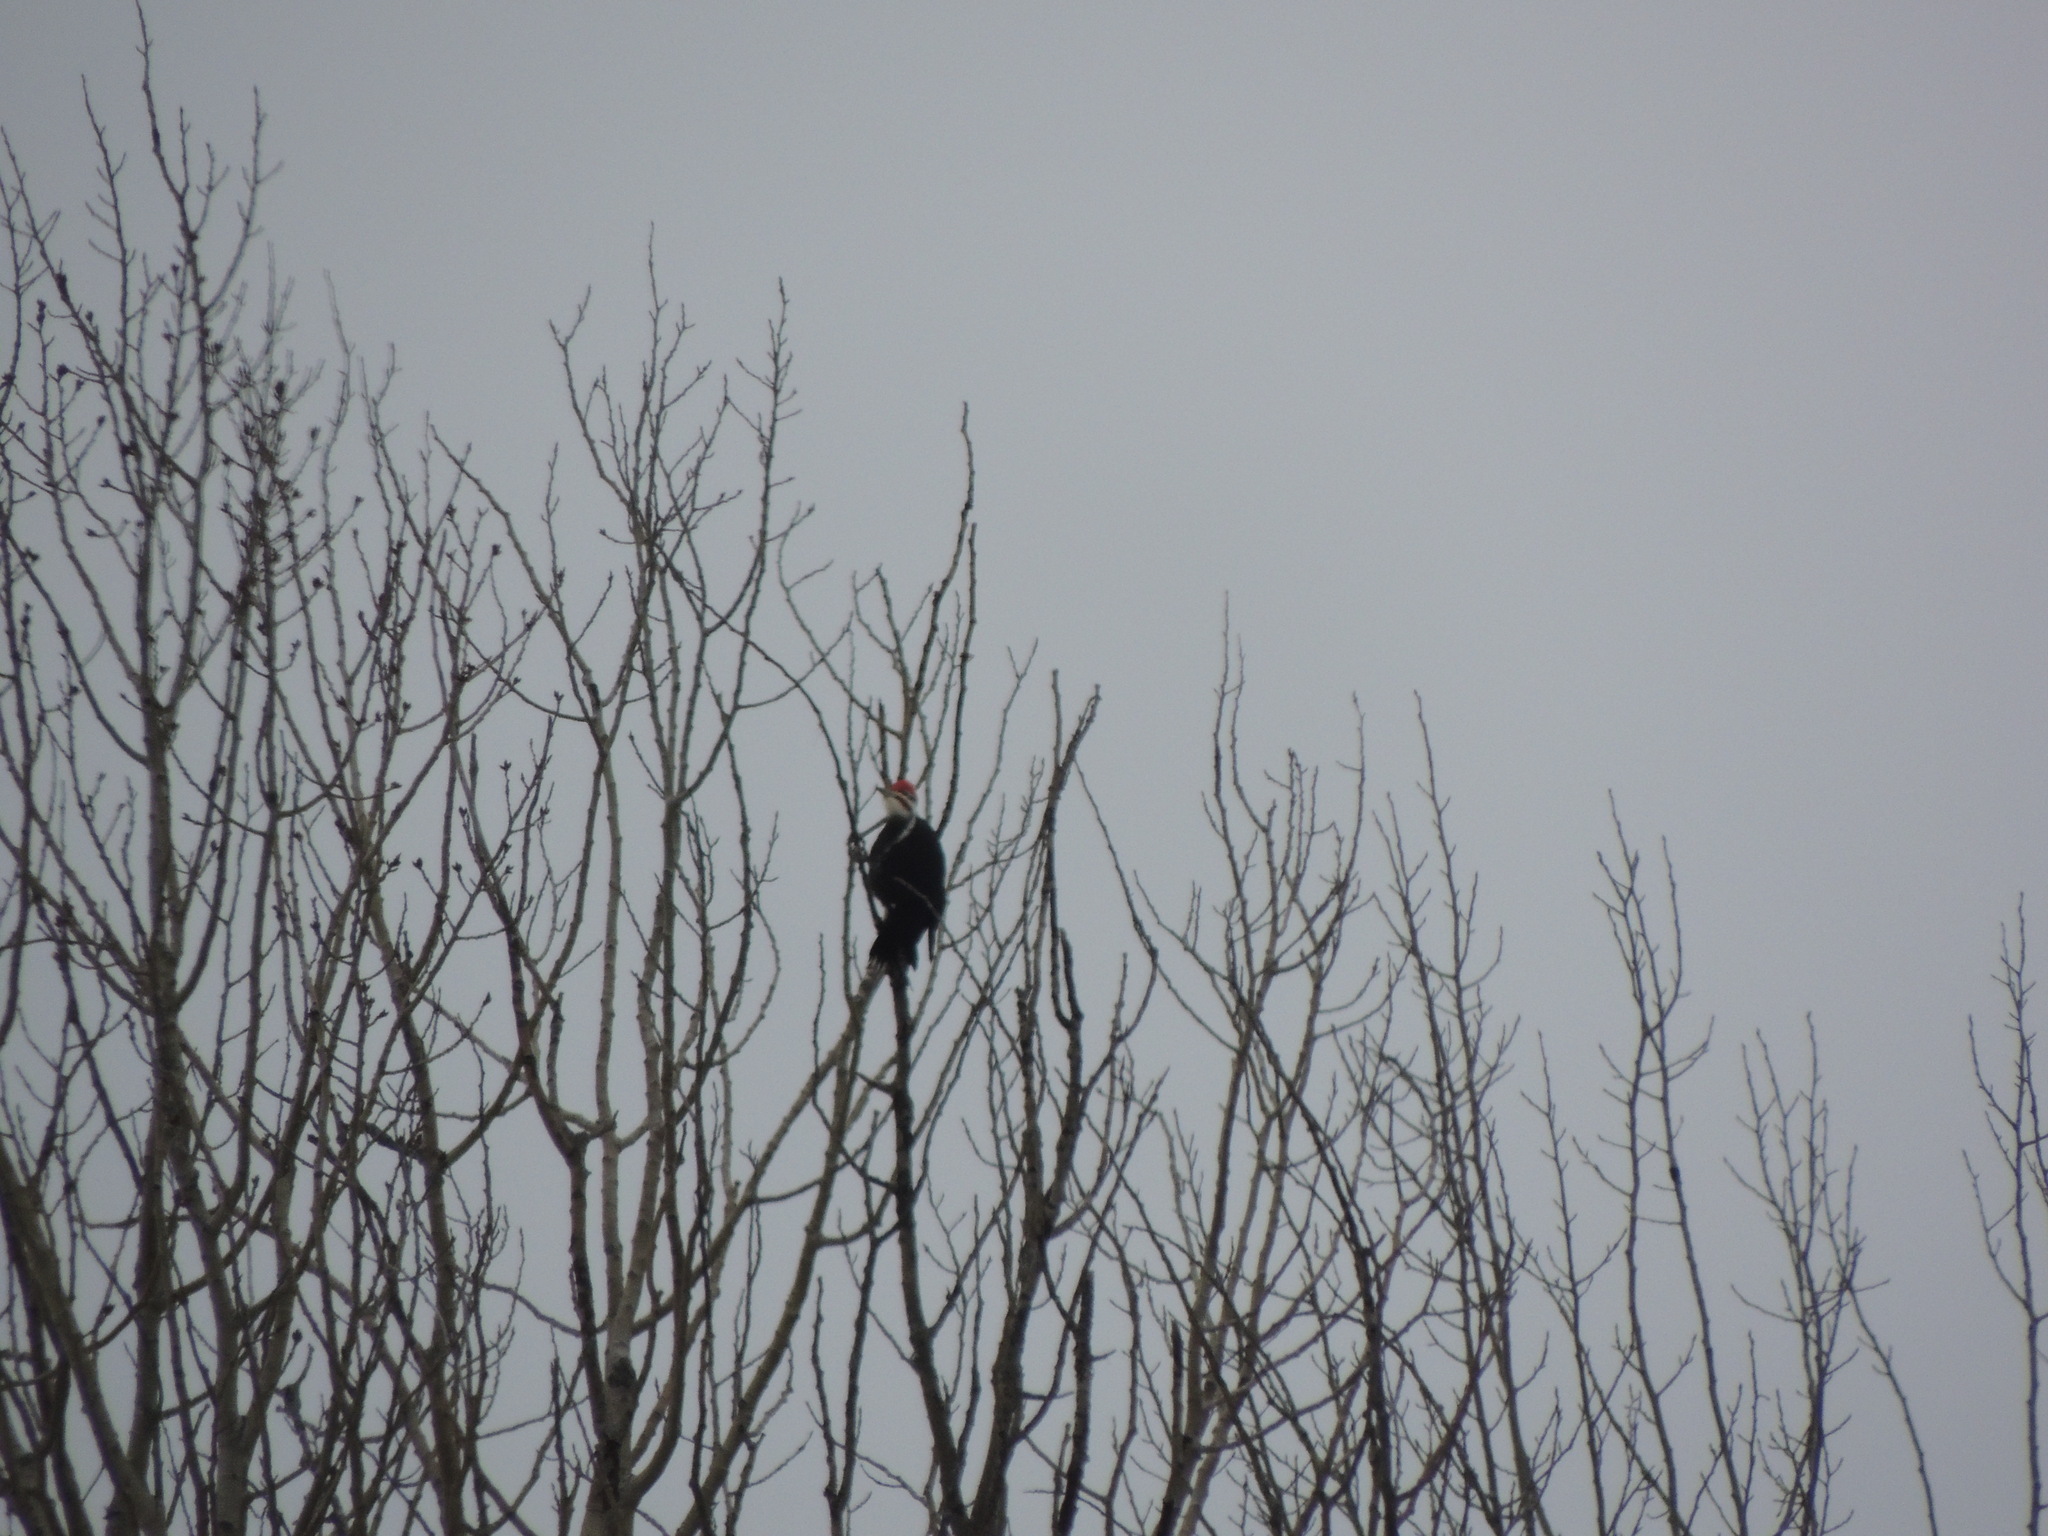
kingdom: Animalia
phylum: Chordata
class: Aves
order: Piciformes
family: Picidae
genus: Dryocopus
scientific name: Dryocopus pileatus
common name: Pileated woodpecker
